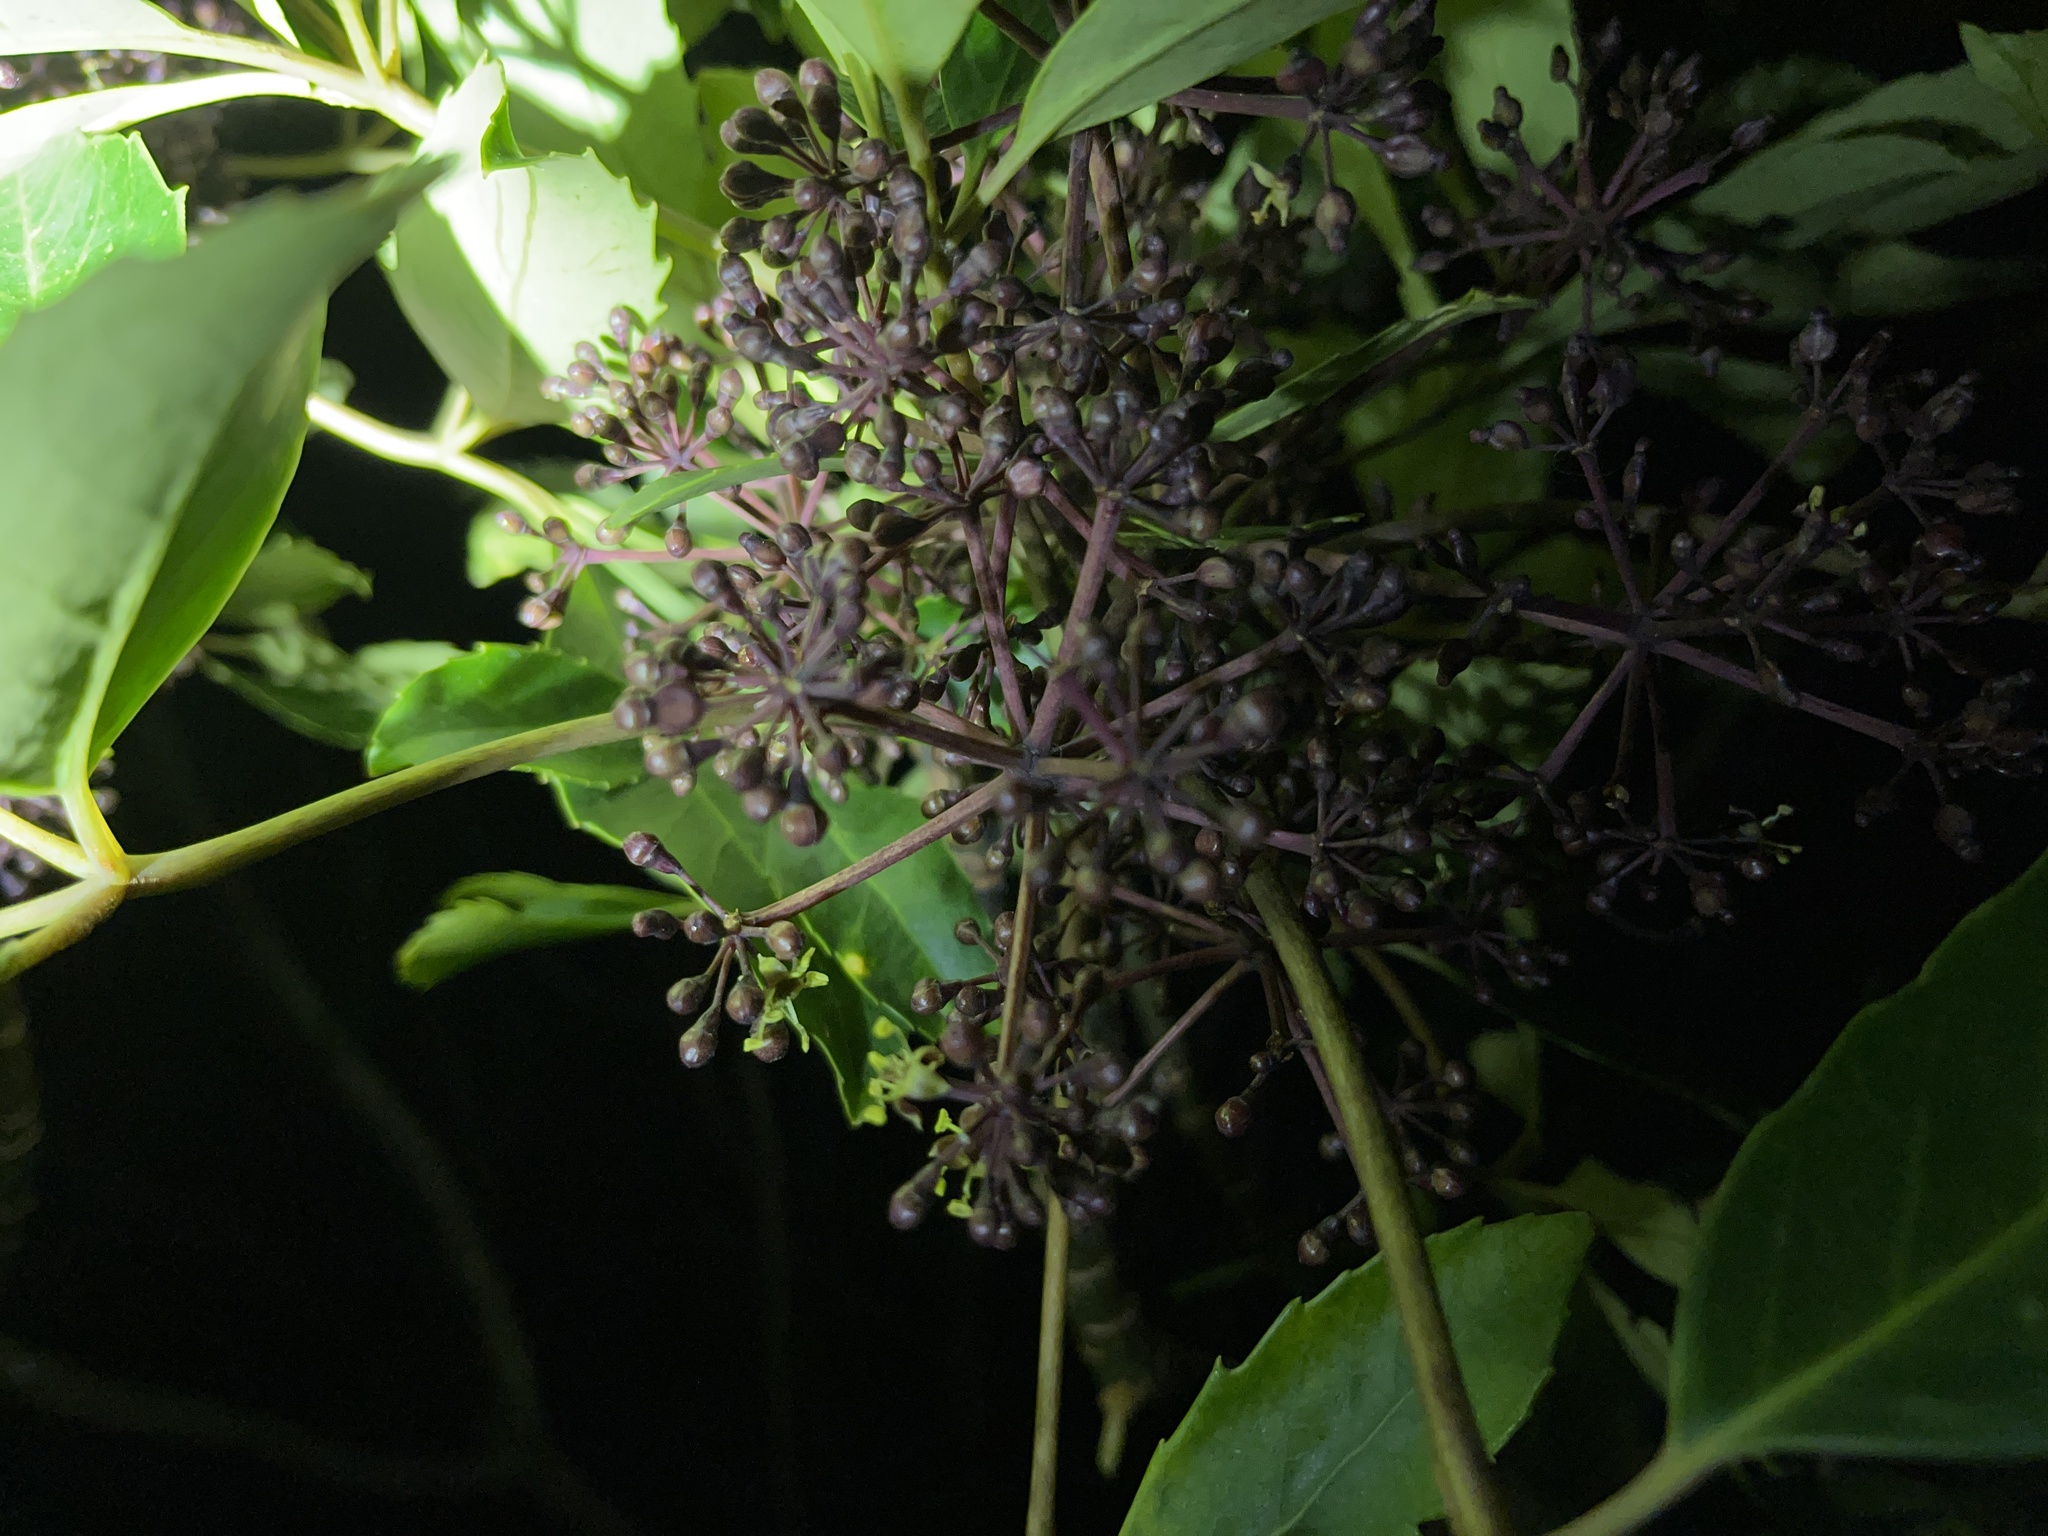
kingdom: Plantae
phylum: Tracheophyta
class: Magnoliopsida
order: Apiales
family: Araliaceae
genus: Neopanax
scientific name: Neopanax arboreus
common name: Five-fingers
